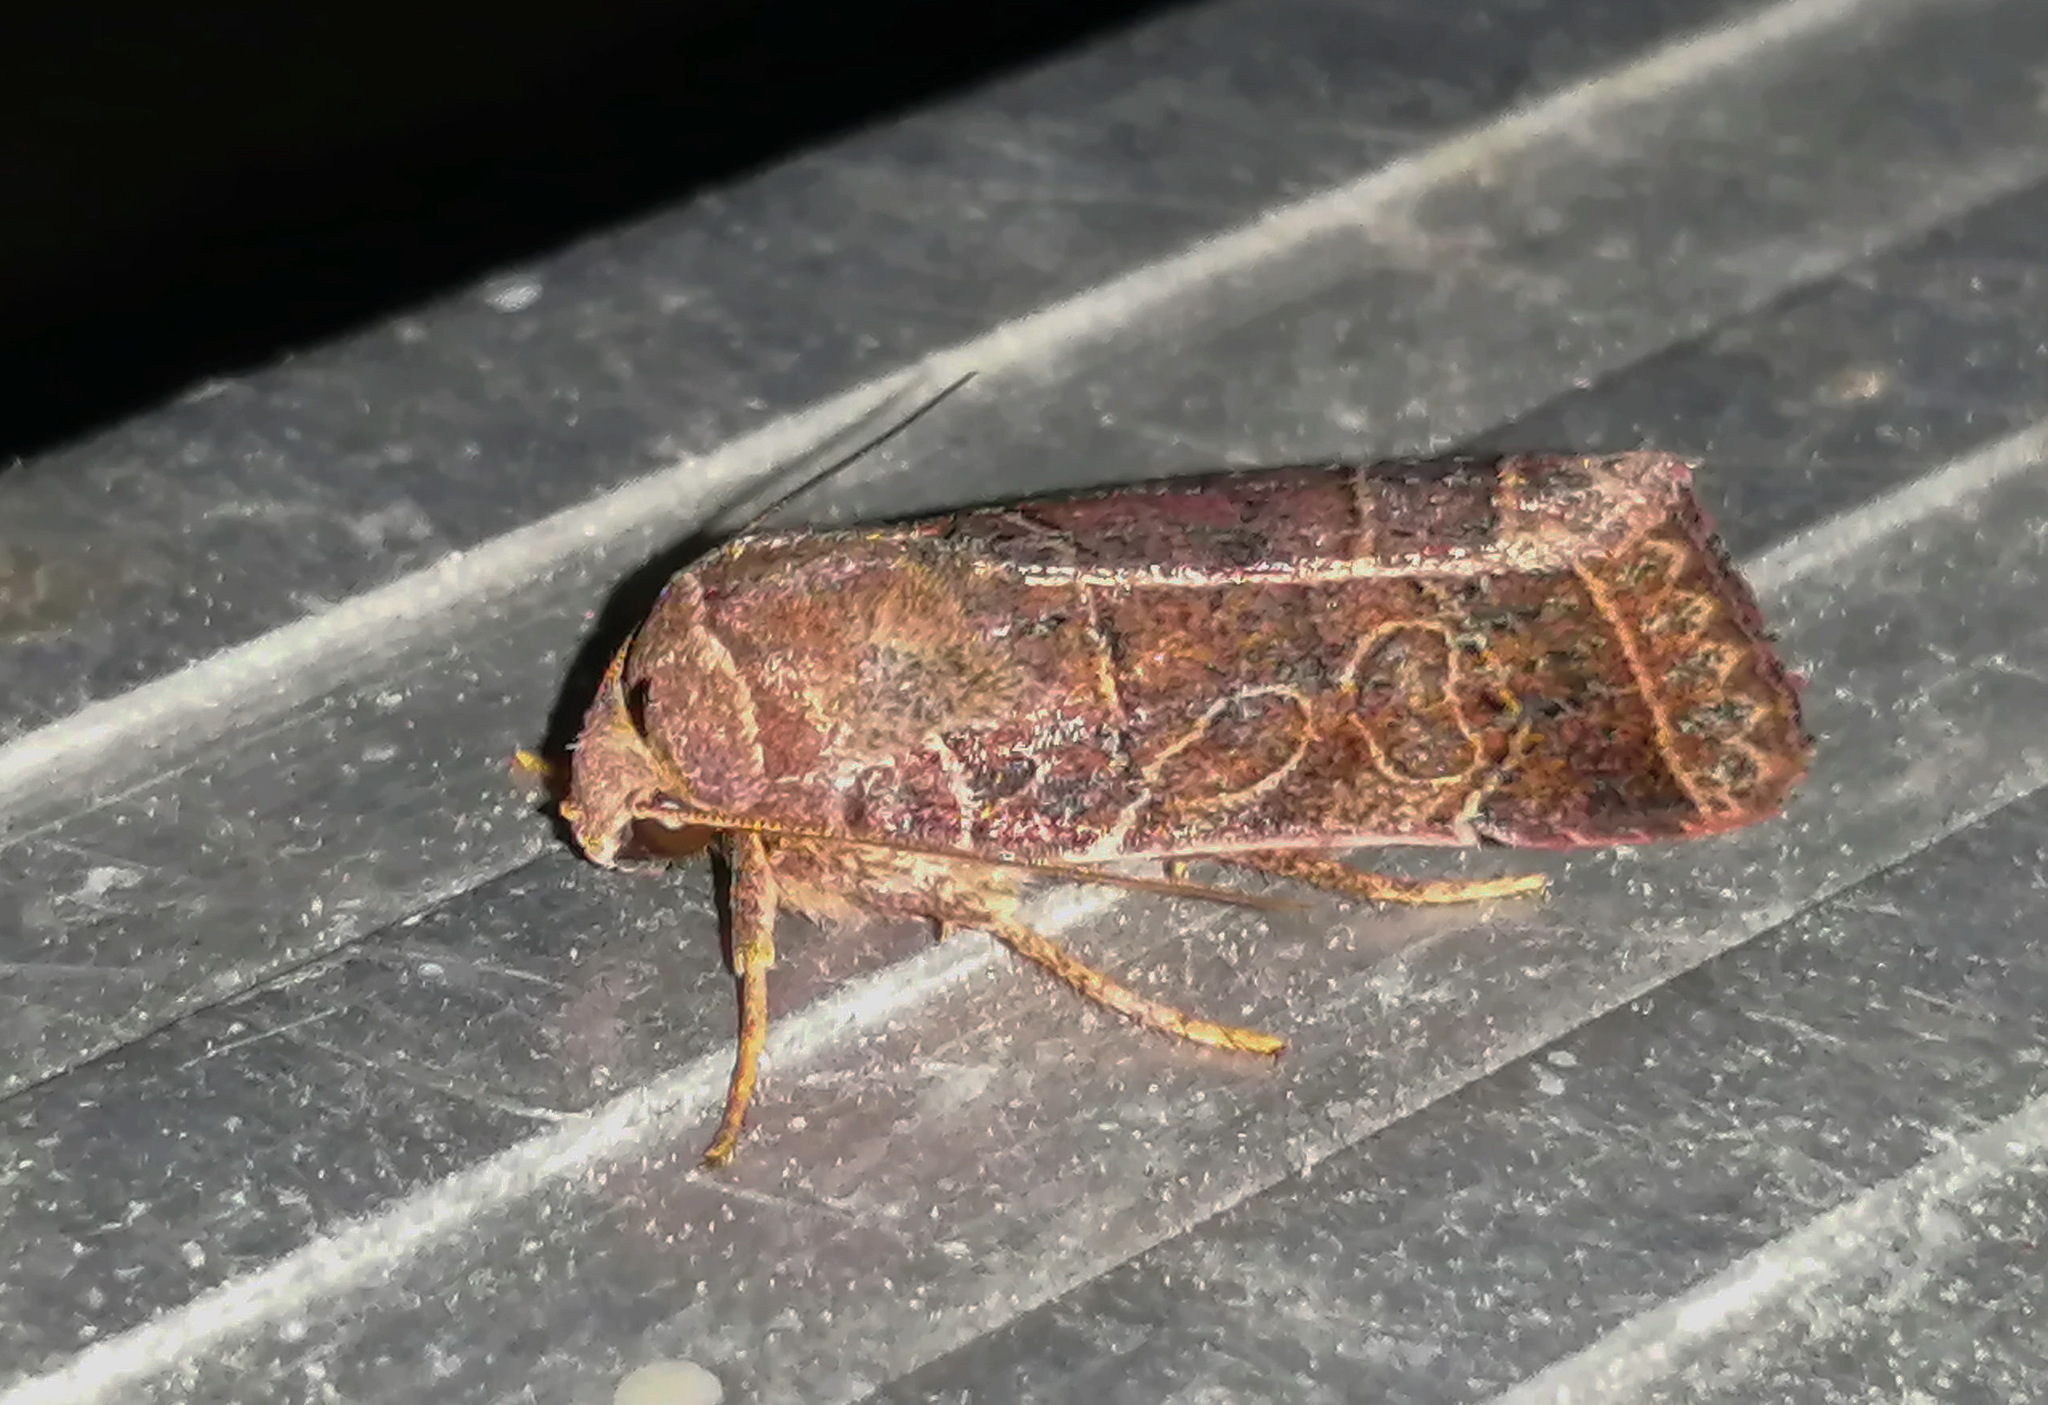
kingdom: Animalia
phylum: Arthropoda
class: Insecta
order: Lepidoptera
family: Noctuidae
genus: Orthodes
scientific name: Orthodes majuscula
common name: Rustic quaker
